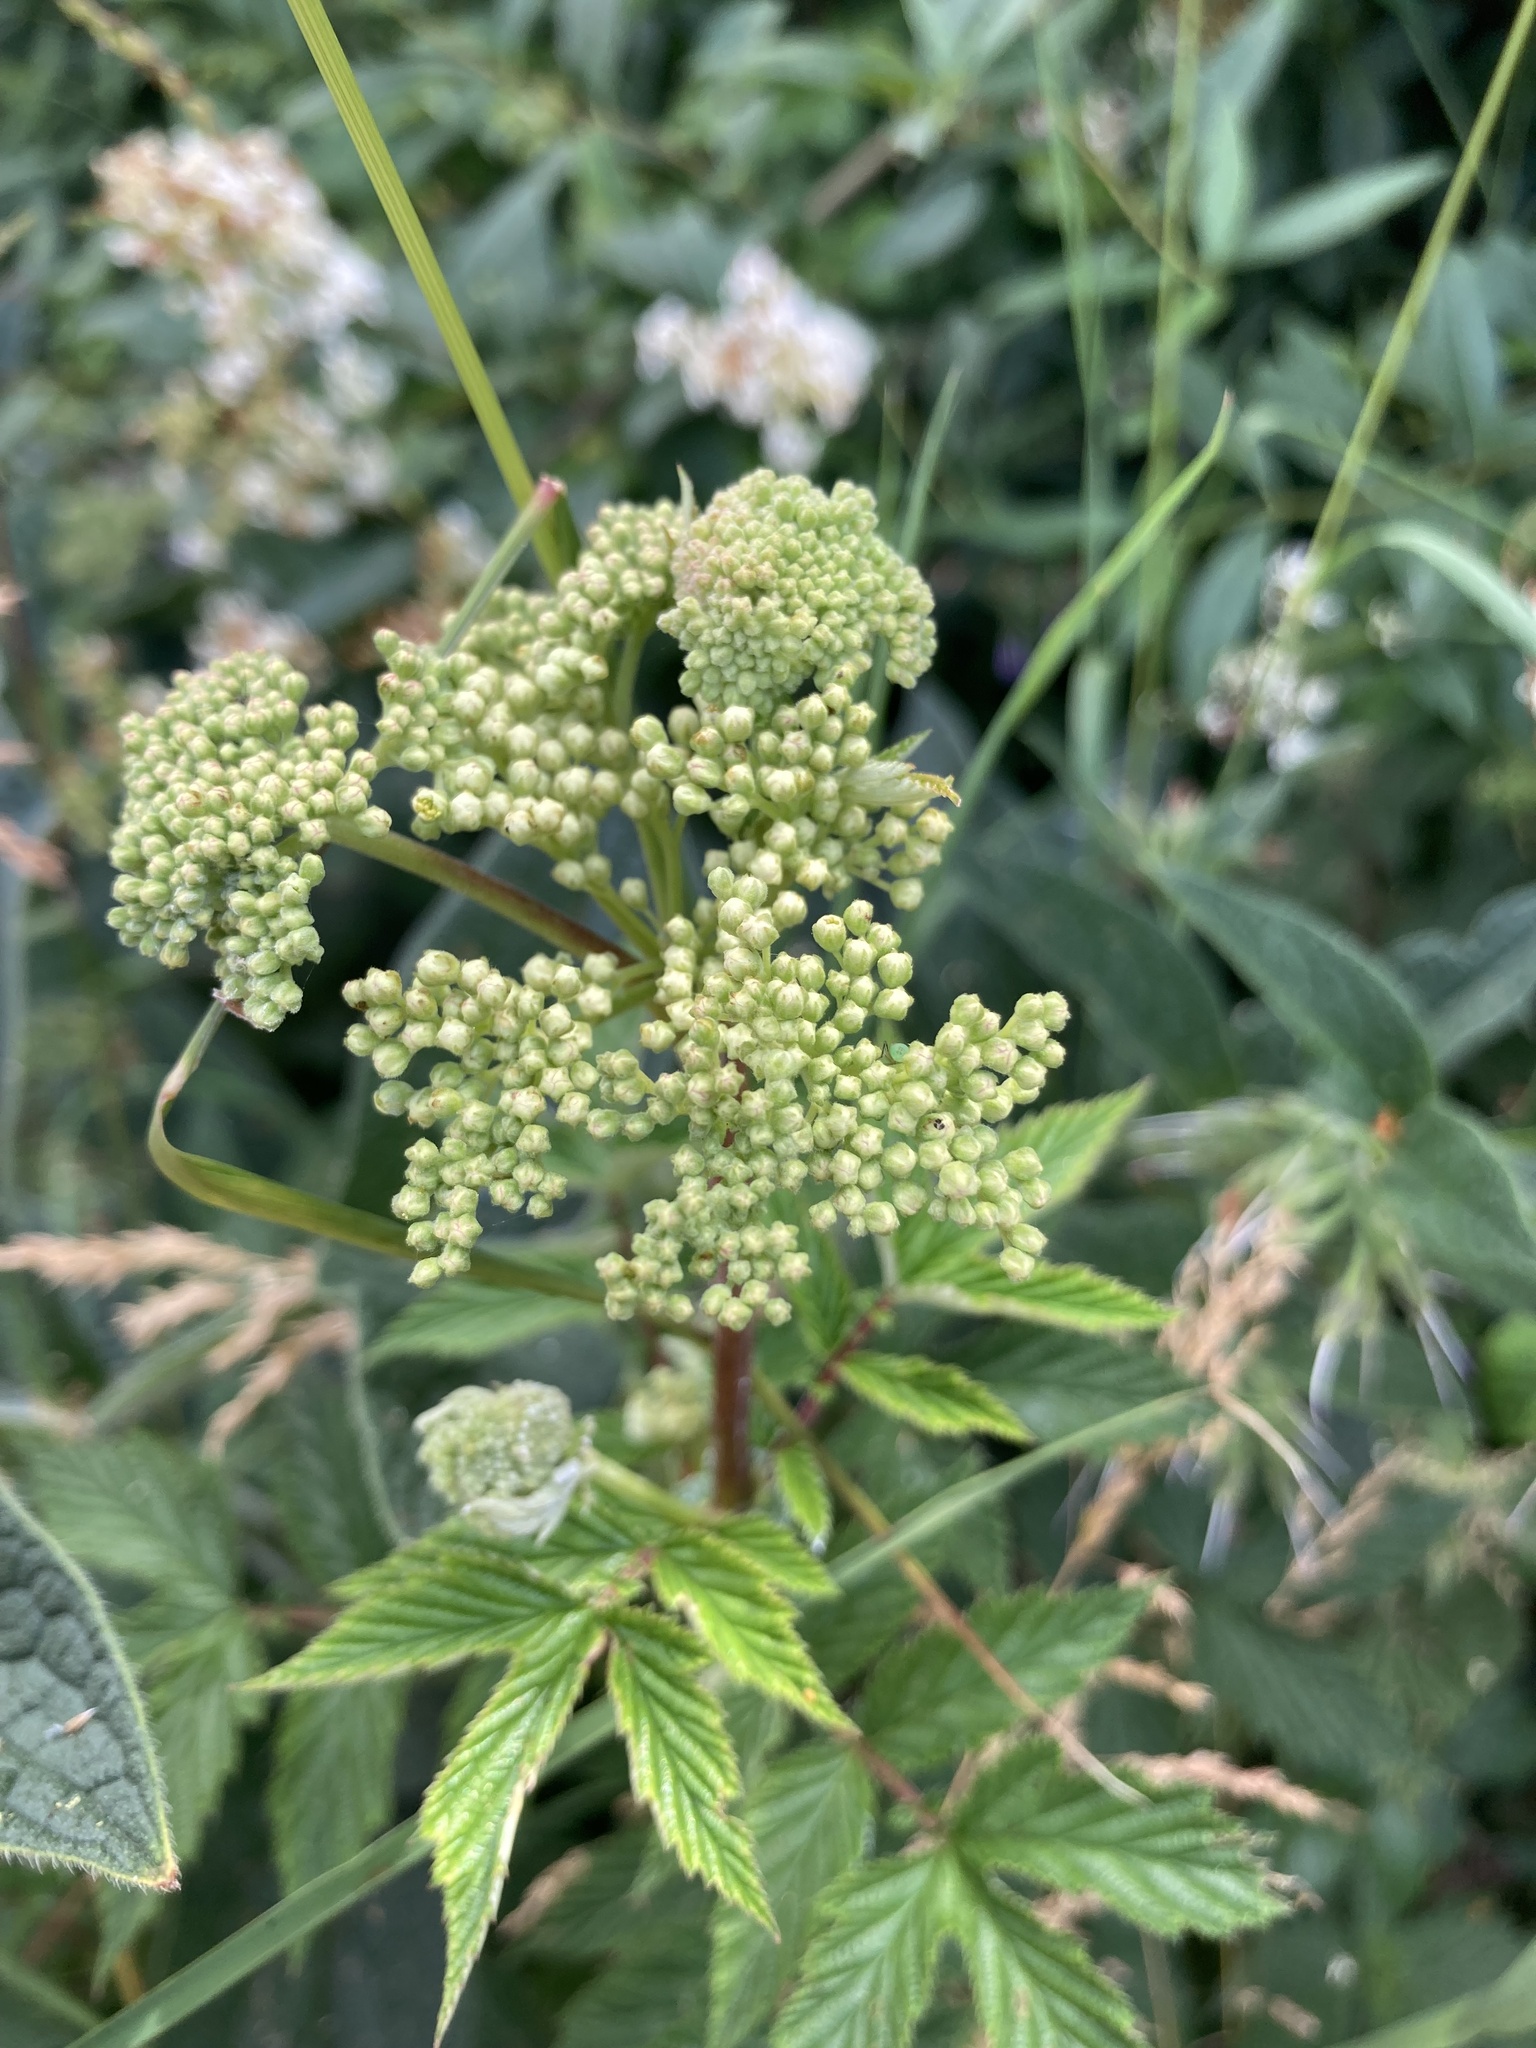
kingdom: Plantae
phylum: Tracheophyta
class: Magnoliopsida
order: Rosales
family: Rosaceae
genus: Filipendula
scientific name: Filipendula ulmaria
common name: Meadowsweet
